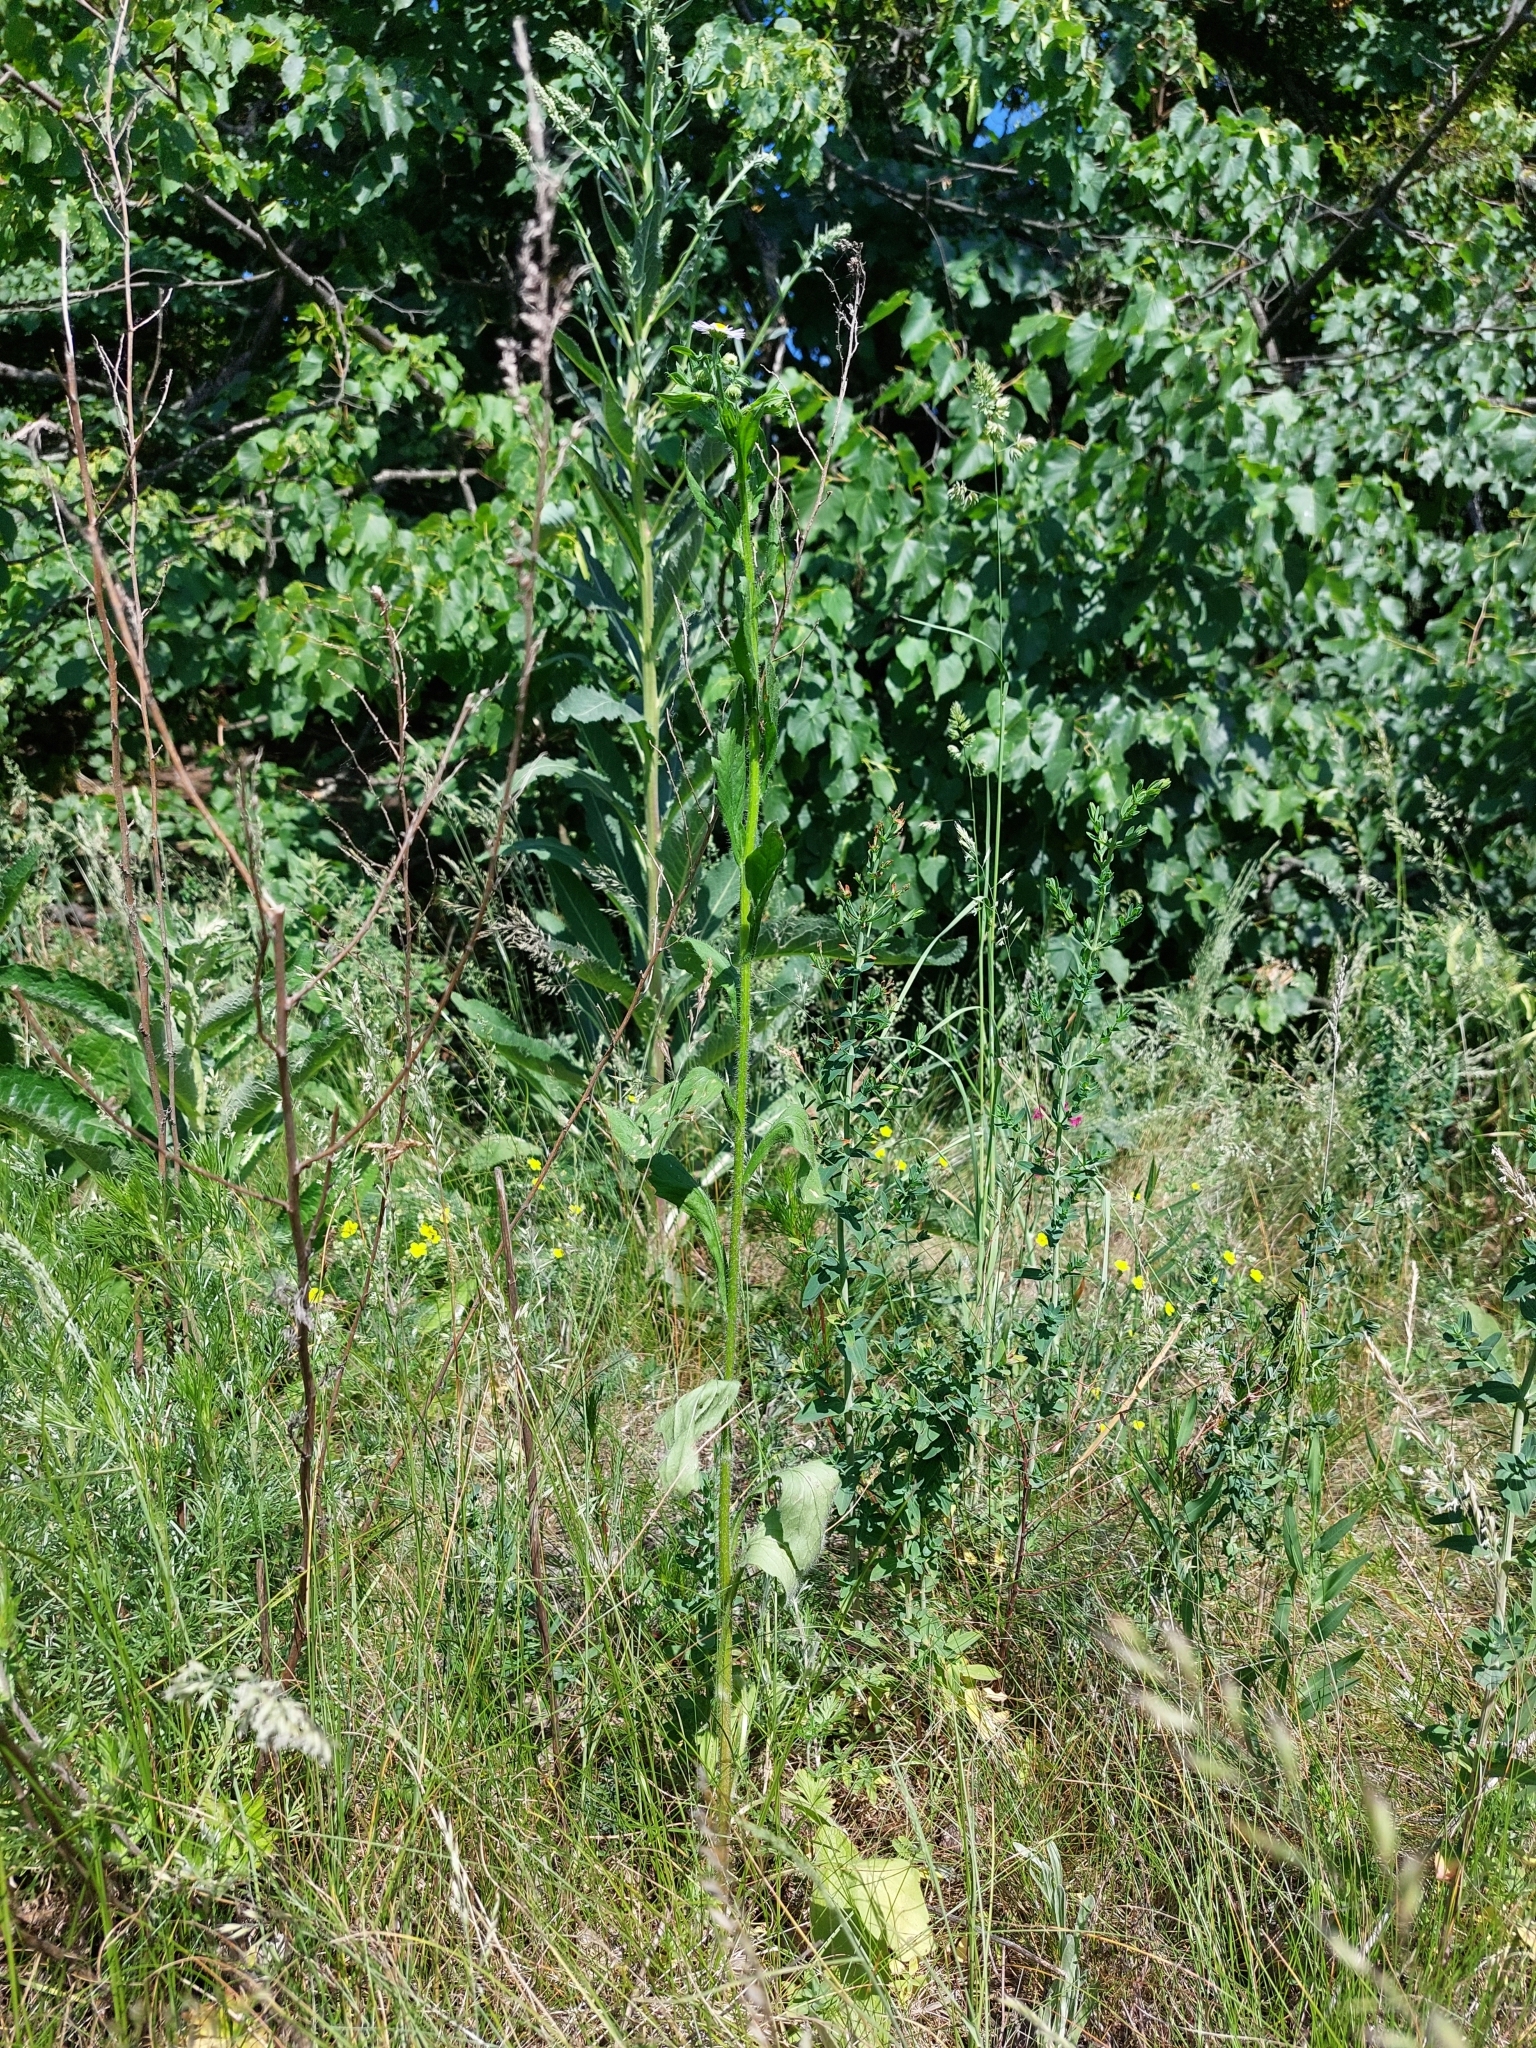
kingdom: Plantae
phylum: Tracheophyta
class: Magnoliopsida
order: Asterales
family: Asteraceae
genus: Erigeron
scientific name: Erigeron annuus
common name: Tall fleabane
